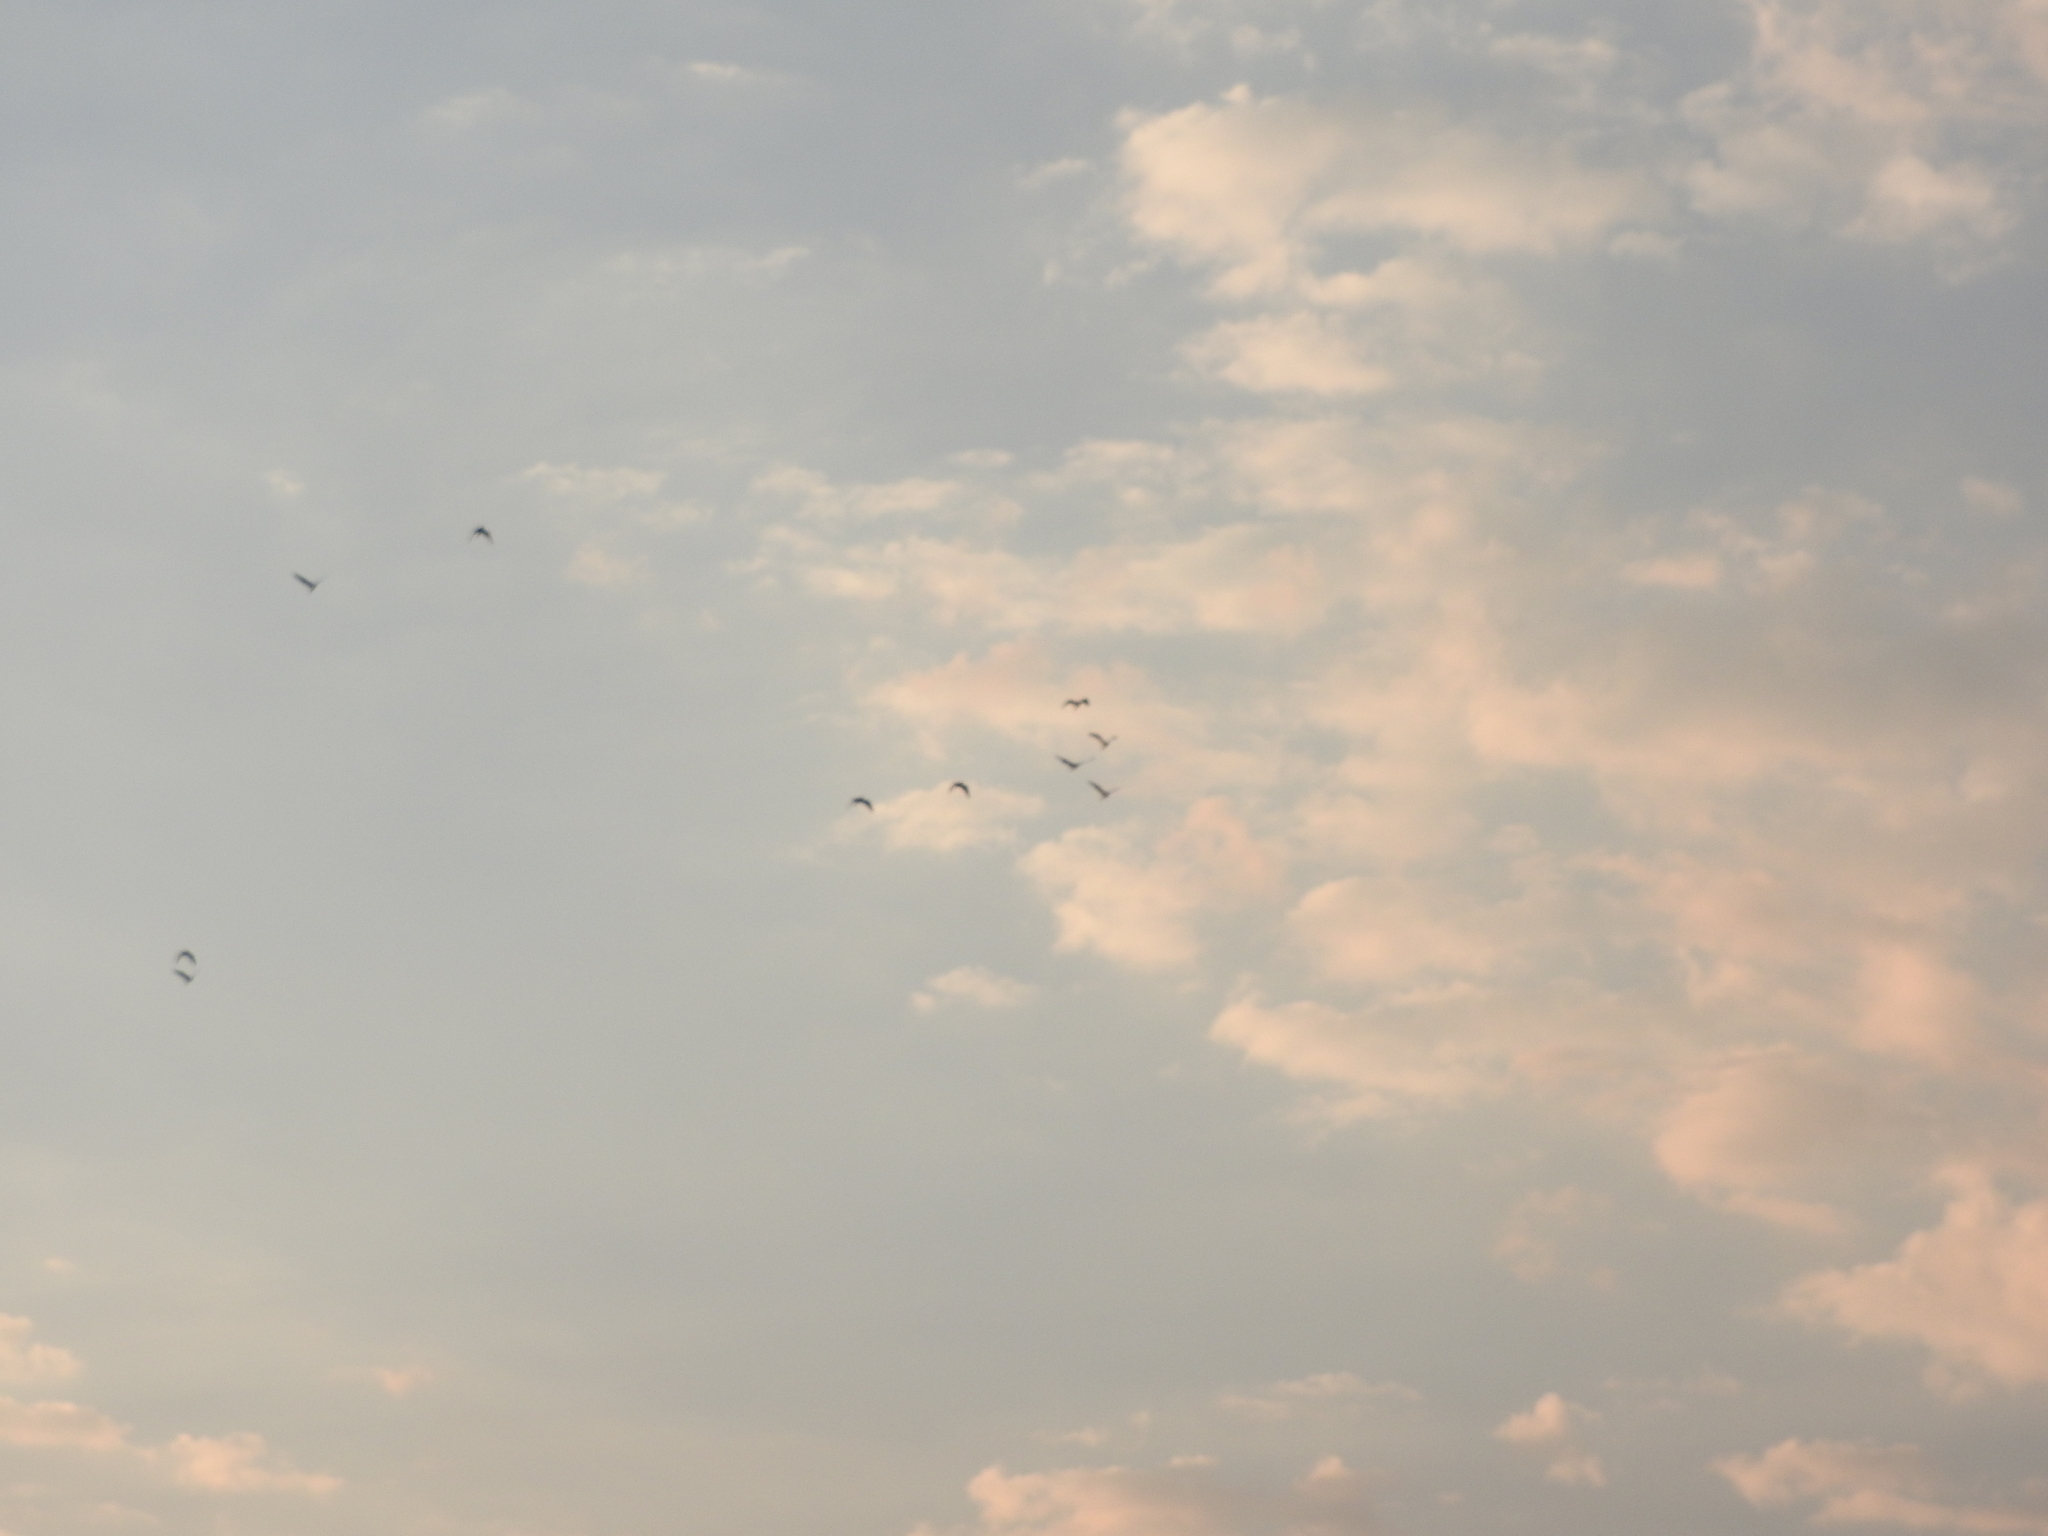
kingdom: Animalia
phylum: Chordata
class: Aves
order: Pelecaniformes
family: Ardeidae
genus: Bubulcus
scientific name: Bubulcus ibis
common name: Cattle egret
